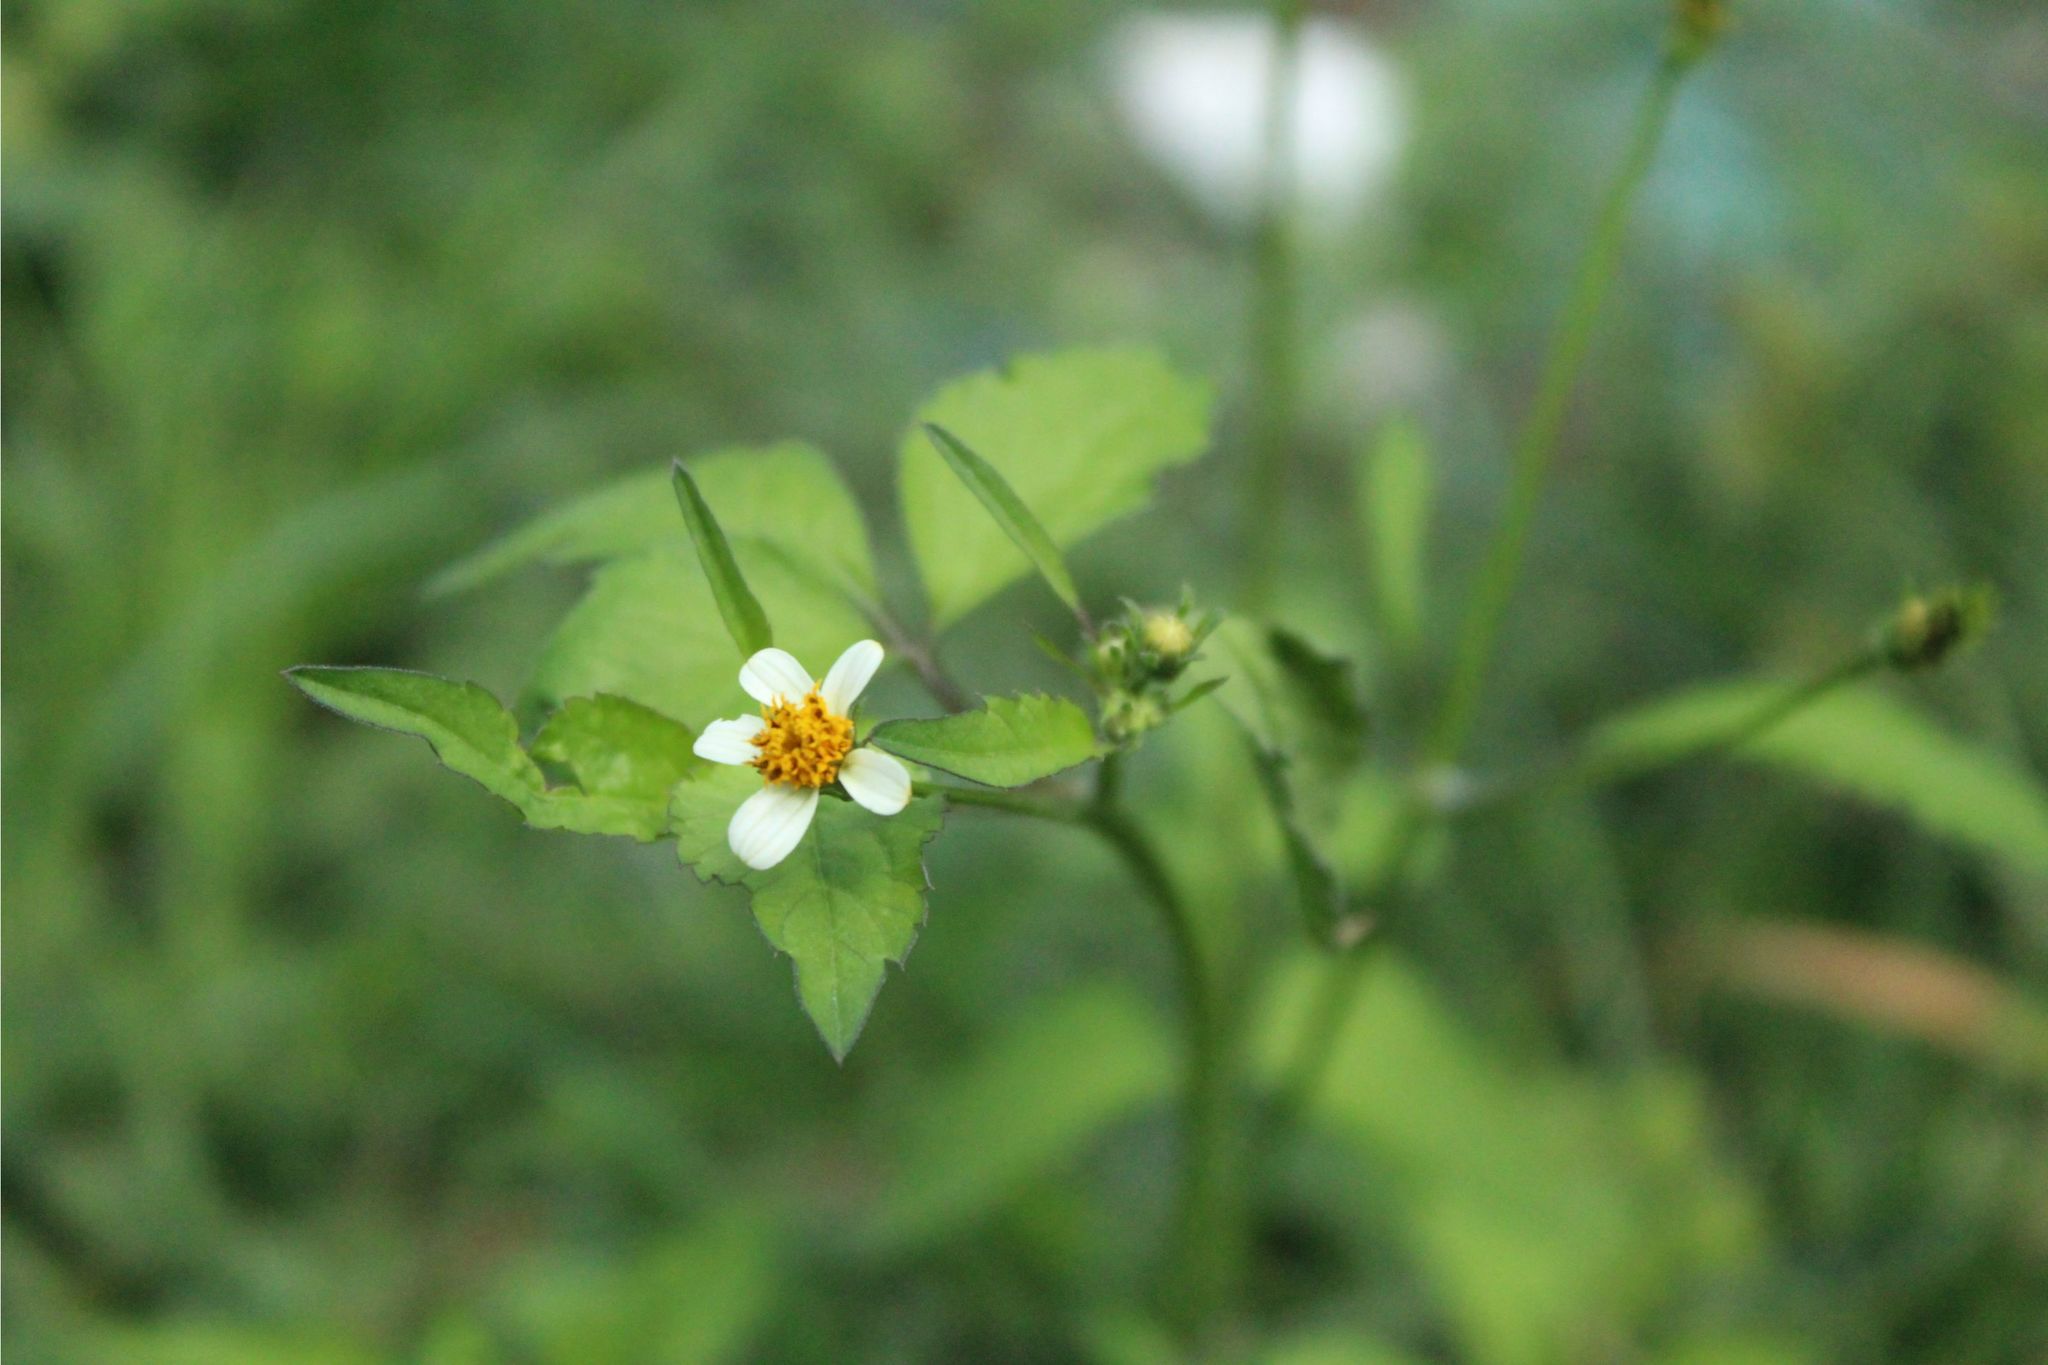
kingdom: Plantae
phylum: Tracheophyta
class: Magnoliopsida
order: Asterales
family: Asteraceae
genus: Bidens
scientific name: Bidens alba
